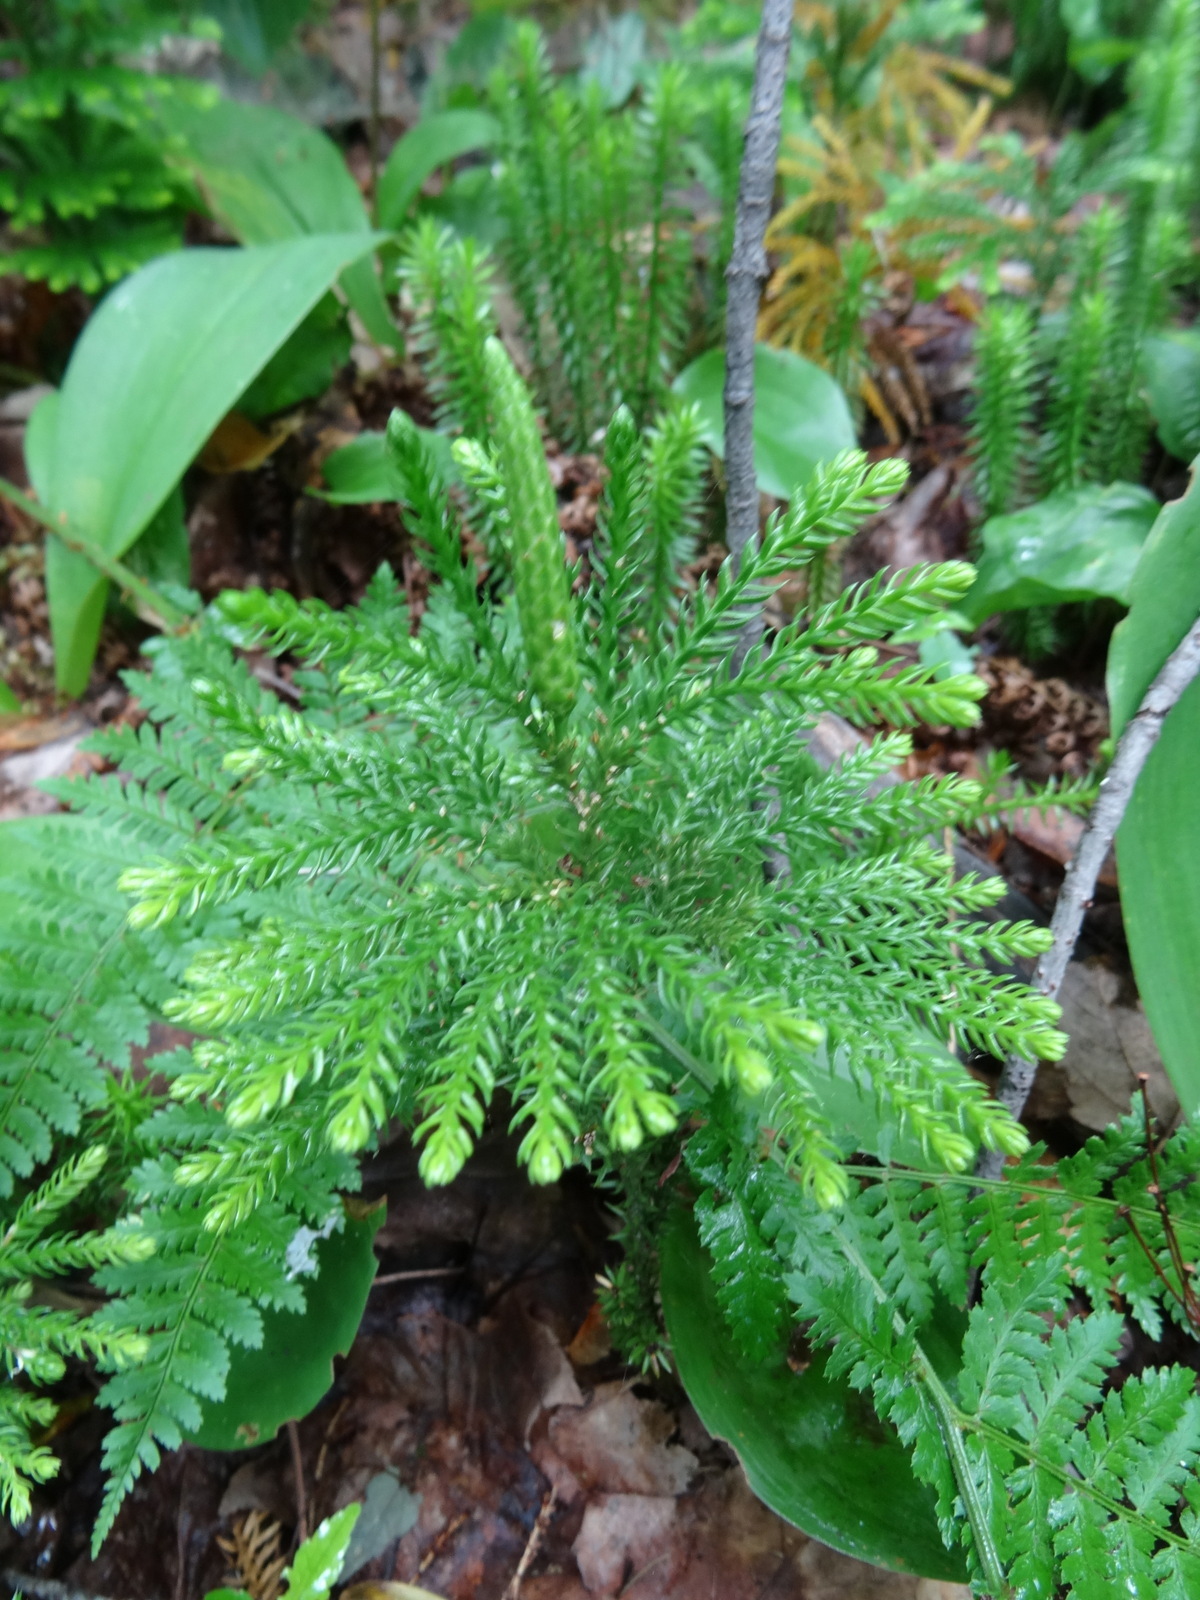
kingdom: Plantae
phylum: Tracheophyta
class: Lycopodiopsida
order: Lycopodiales
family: Lycopodiaceae
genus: Dendrolycopodium
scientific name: Dendrolycopodium obscurum
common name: Common ground-pine
